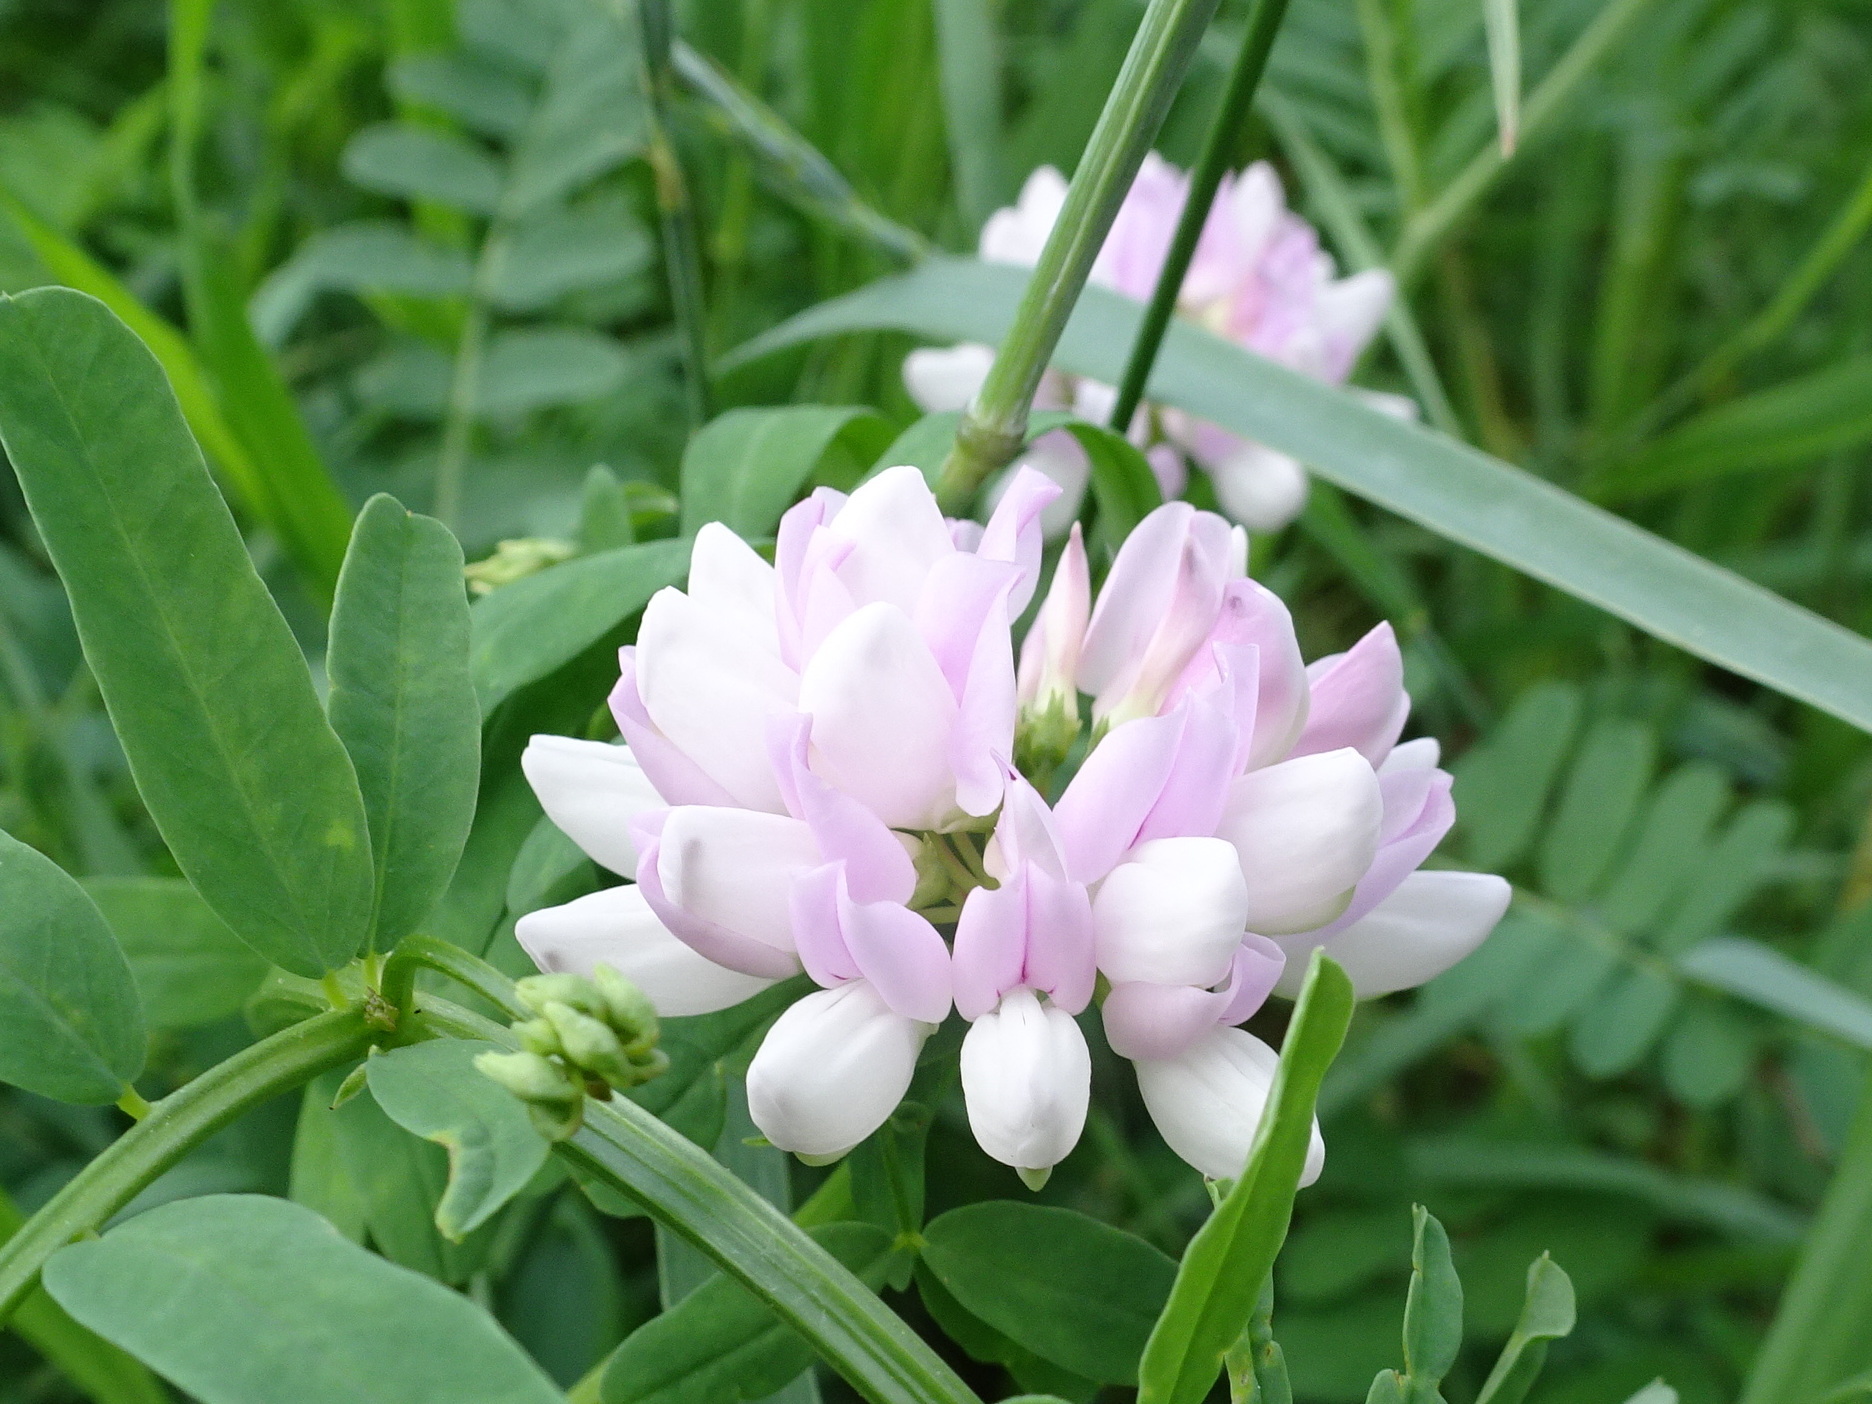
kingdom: Plantae
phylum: Tracheophyta
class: Magnoliopsida
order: Fabales
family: Fabaceae
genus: Coronilla
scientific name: Coronilla varia
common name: Crownvetch
